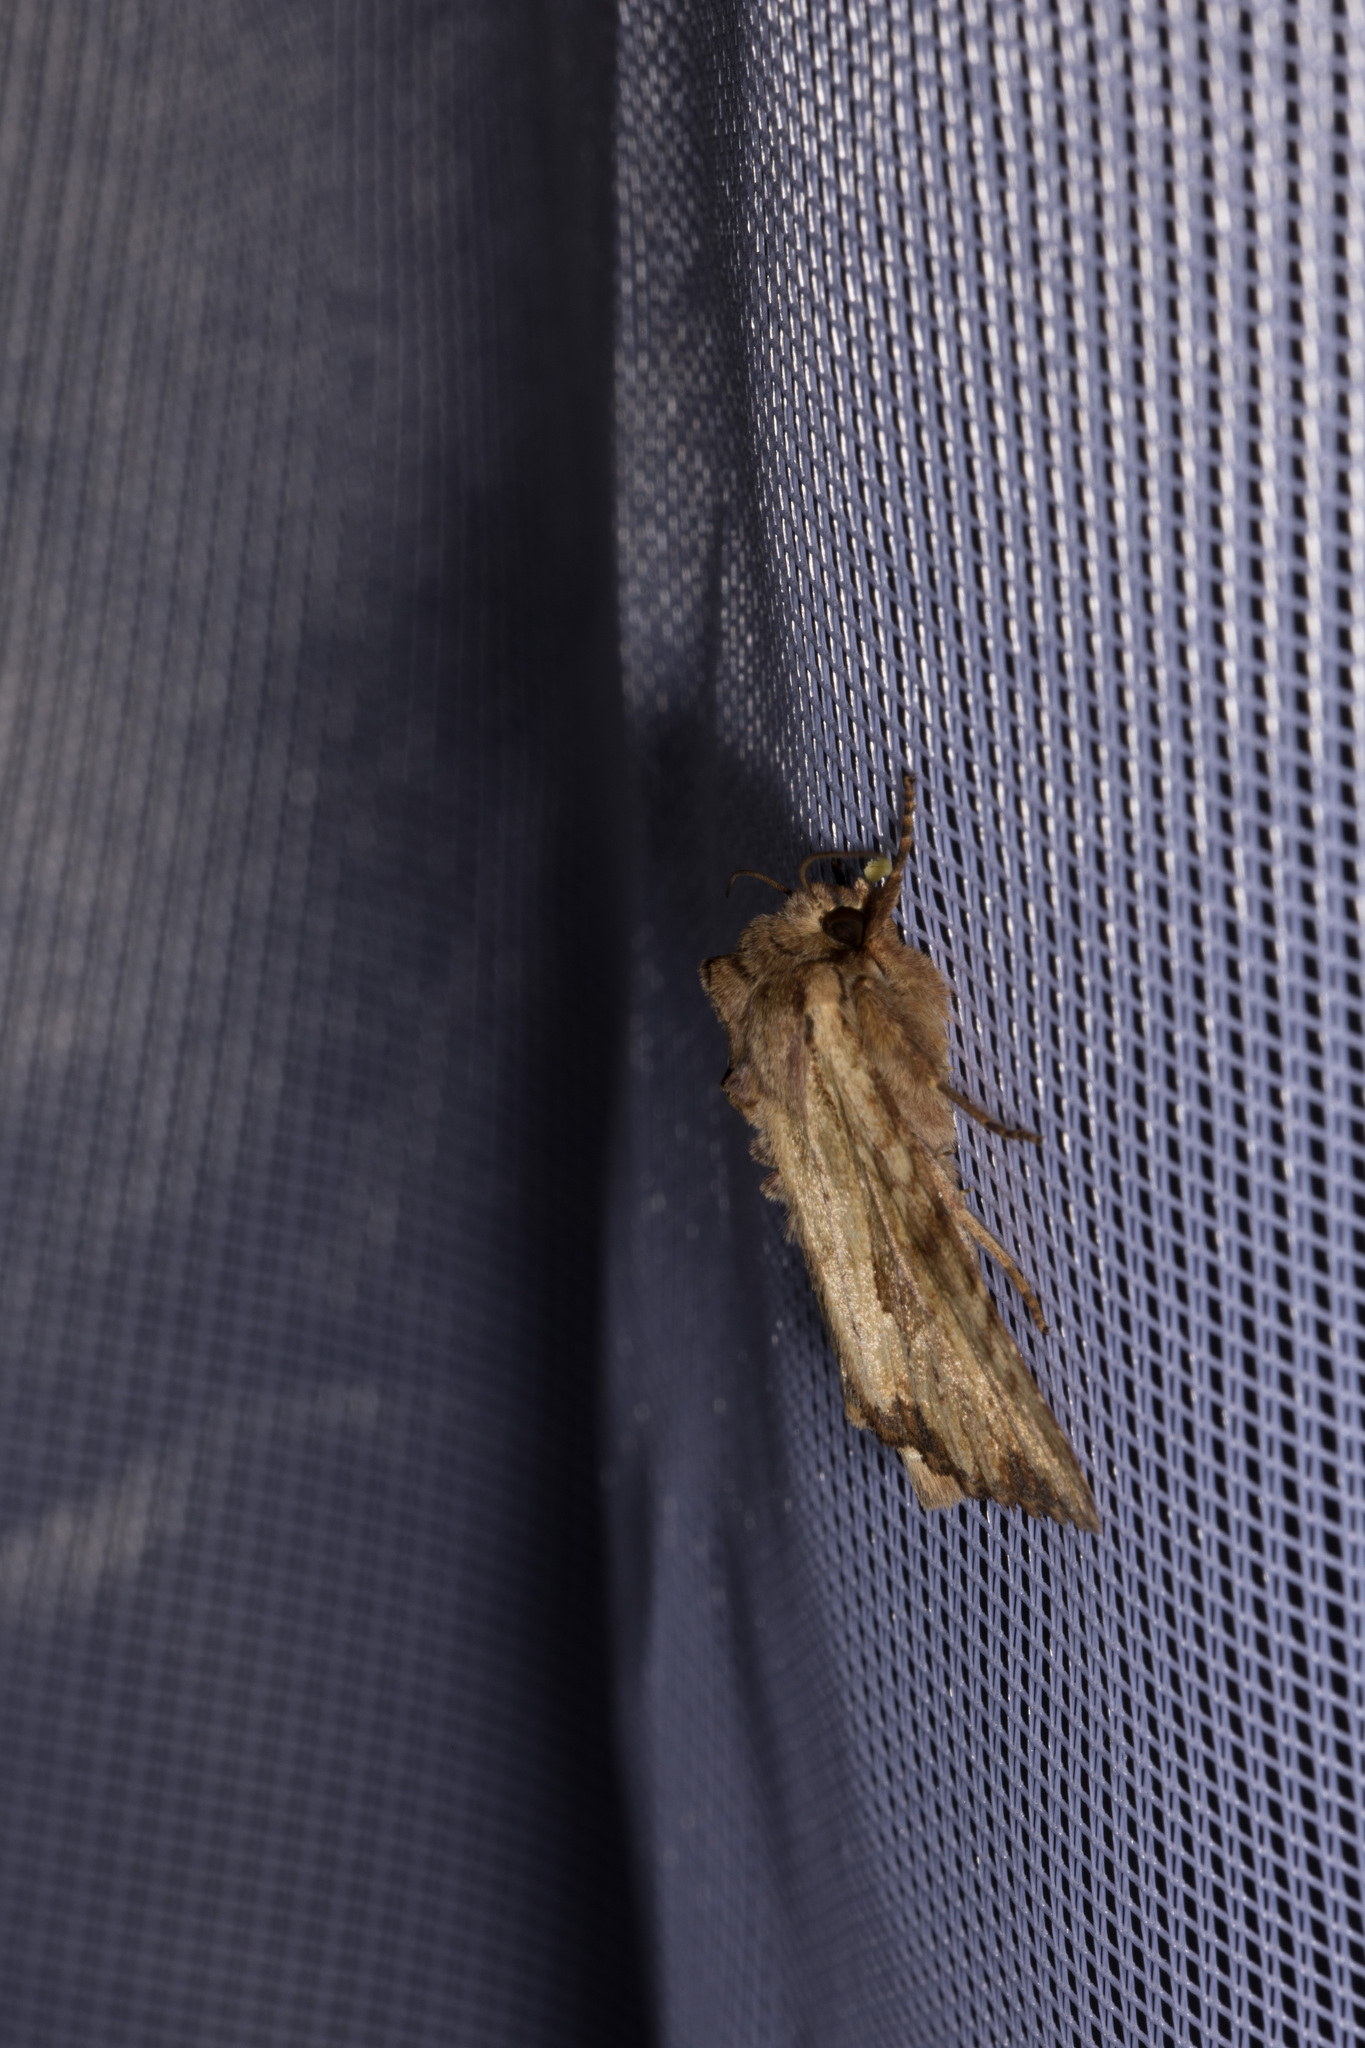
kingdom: Animalia
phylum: Arthropoda
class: Insecta
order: Lepidoptera
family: Noctuidae
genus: Apamea
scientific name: Apamea sublustris
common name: Reddish light arches
